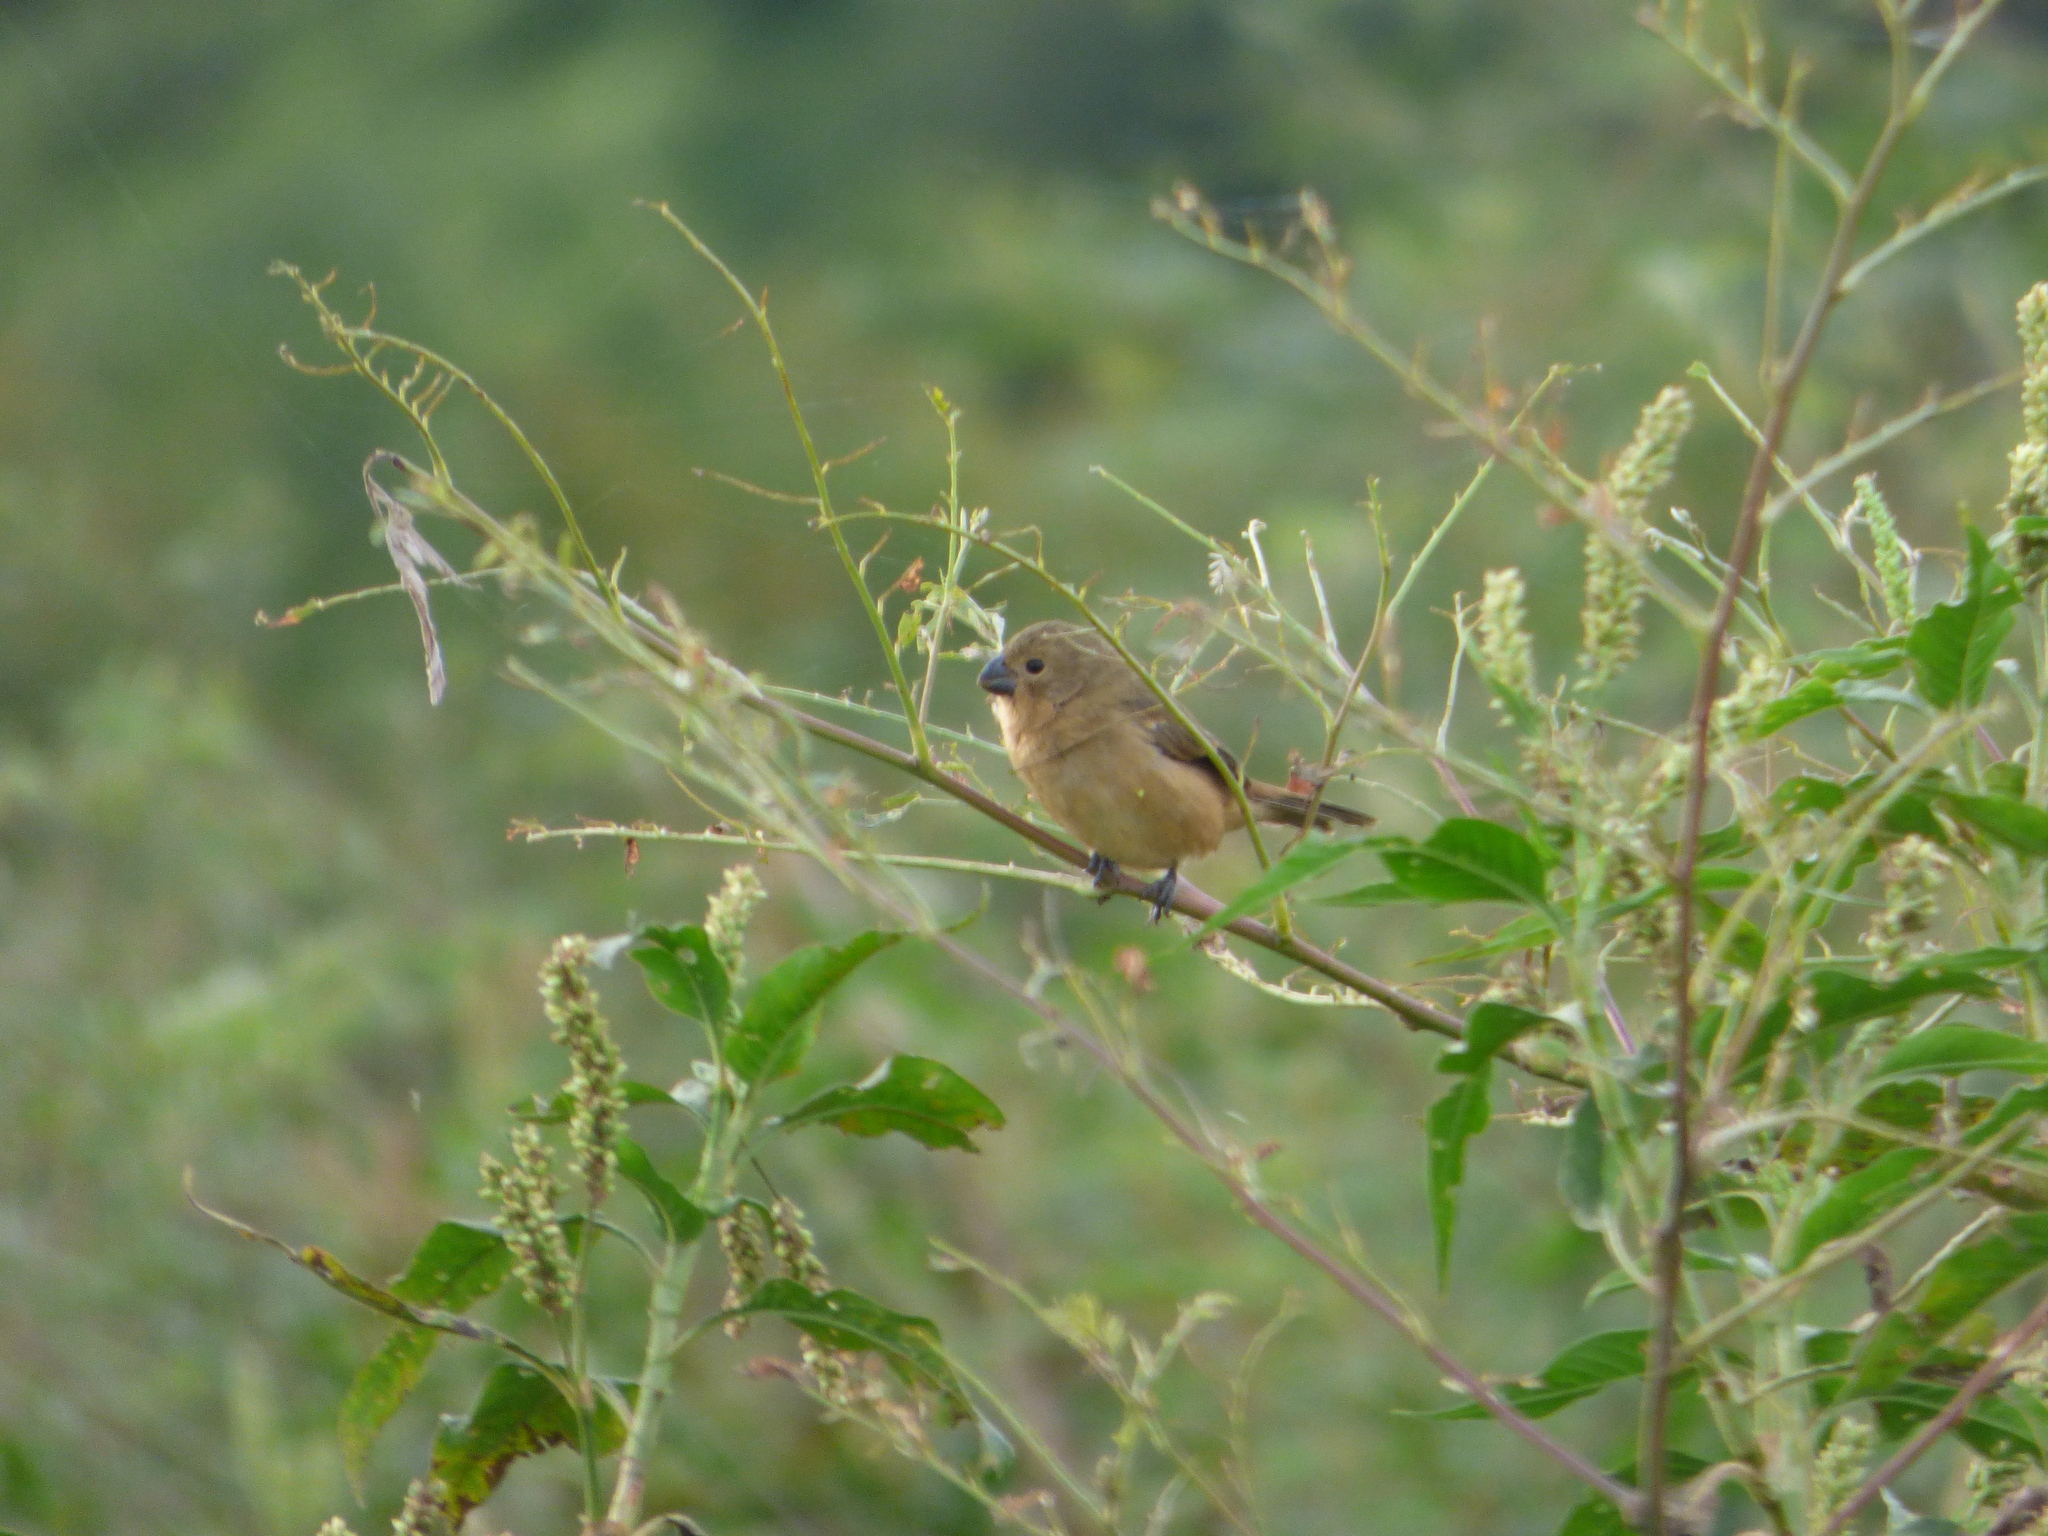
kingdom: Animalia
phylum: Chordata
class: Aves
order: Passeriformes
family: Thraupidae
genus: Sporophila
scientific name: Sporophila collaris
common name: Rusty-collared seedeater
